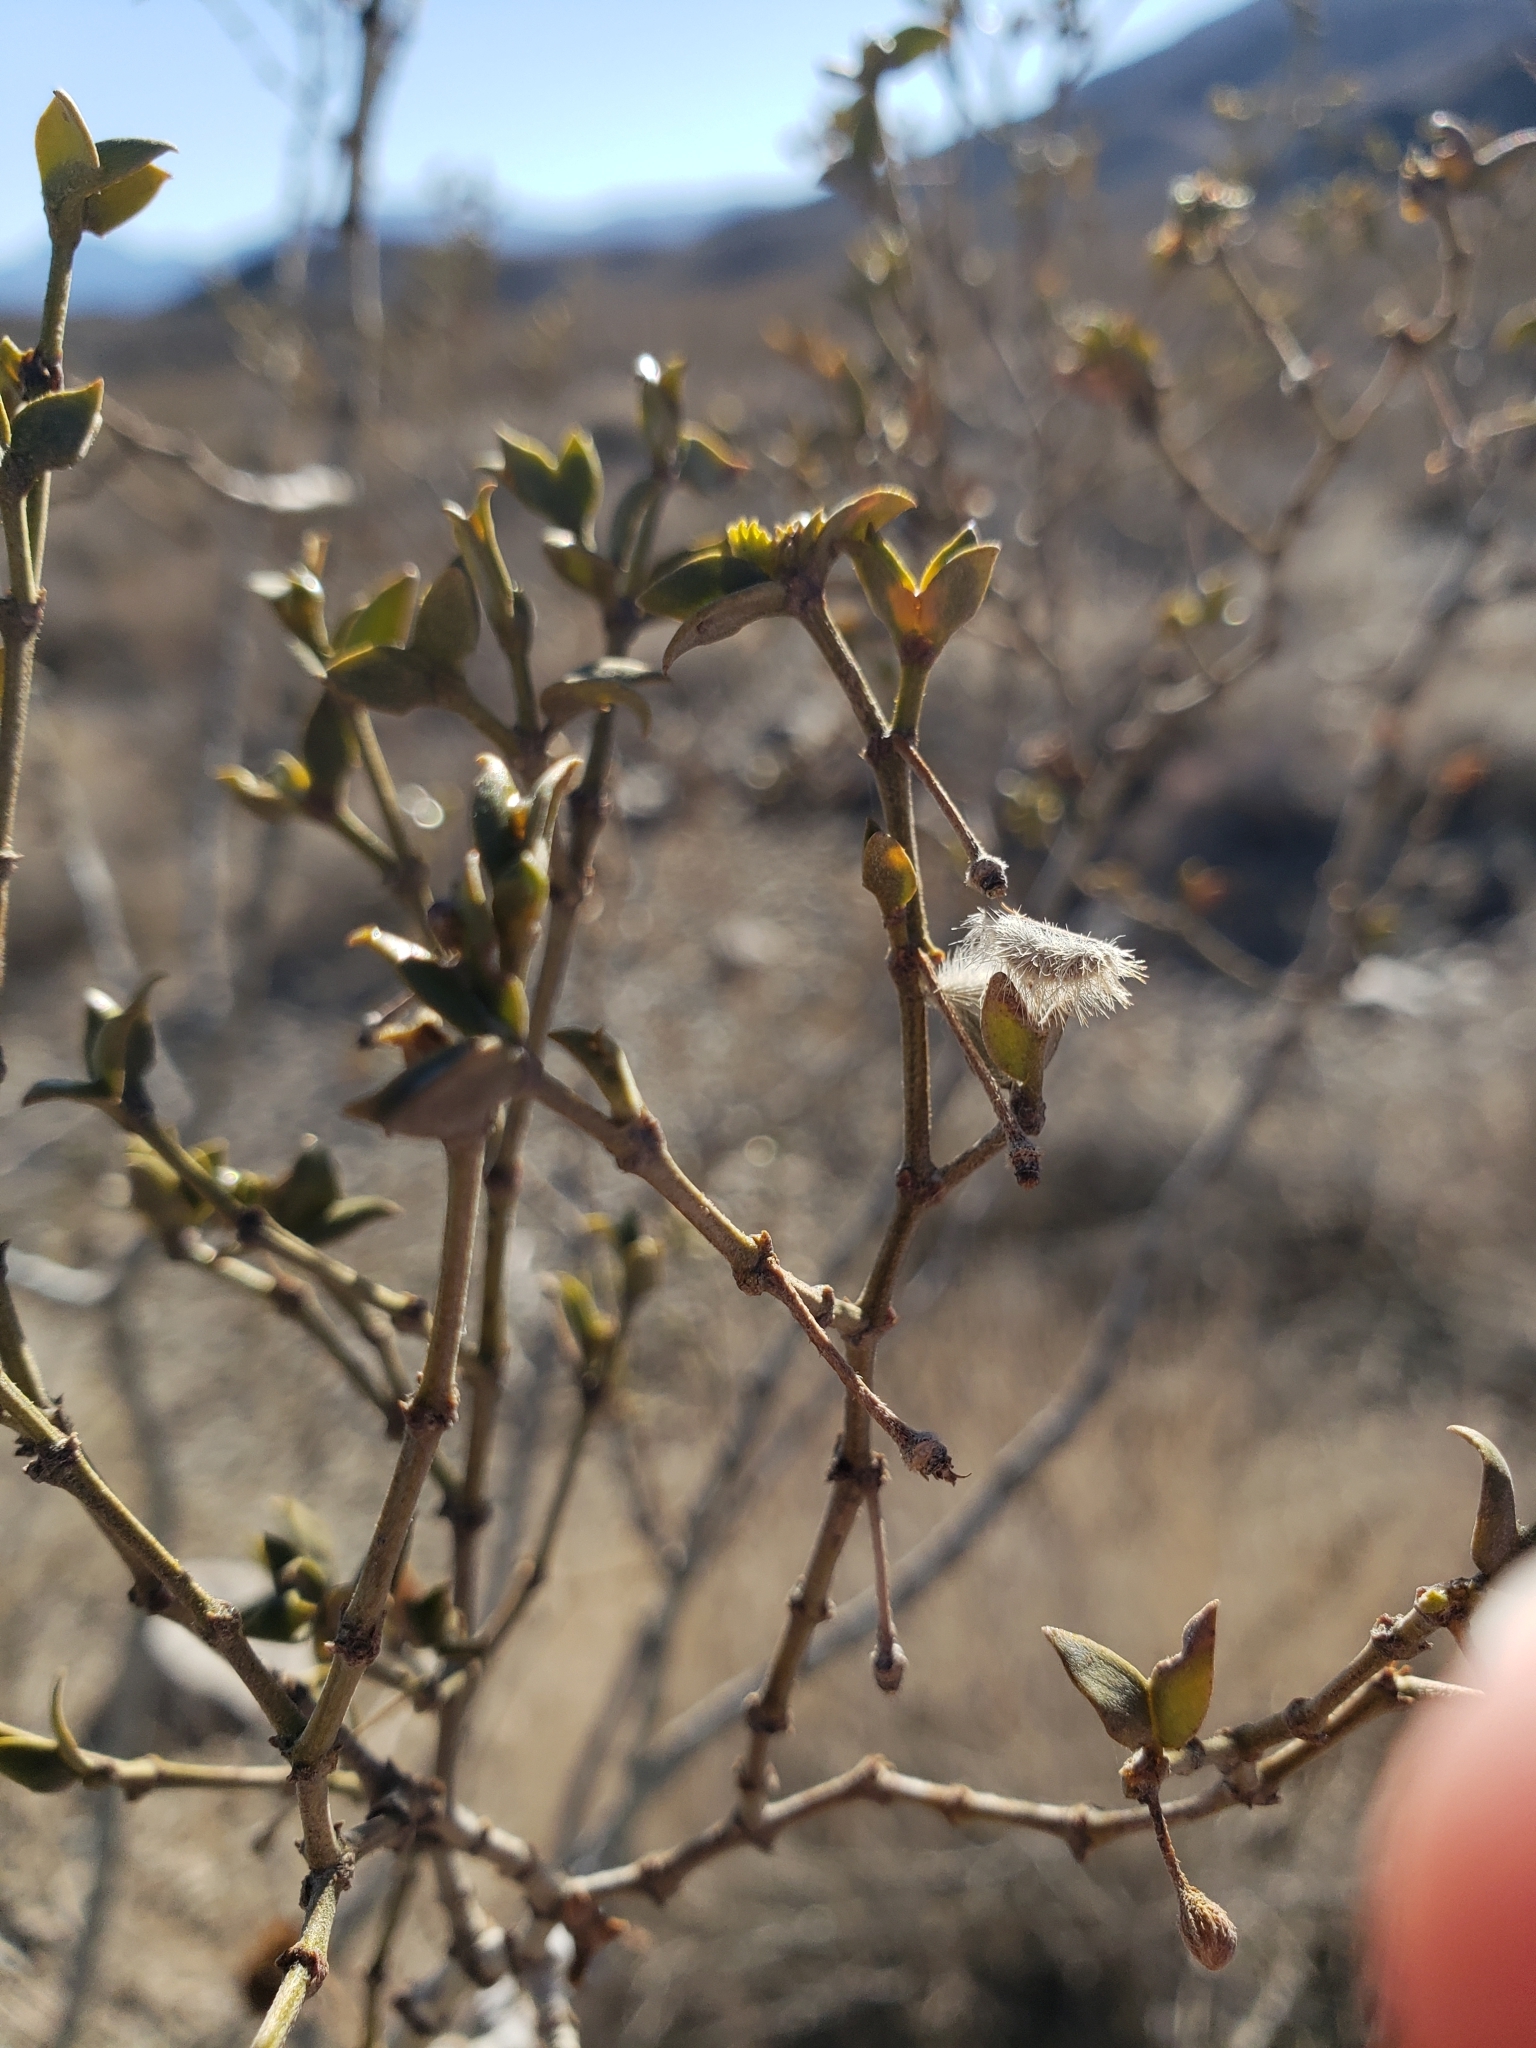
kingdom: Plantae
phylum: Tracheophyta
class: Magnoliopsida
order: Zygophyllales
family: Zygophyllaceae
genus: Larrea
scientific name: Larrea tridentata
